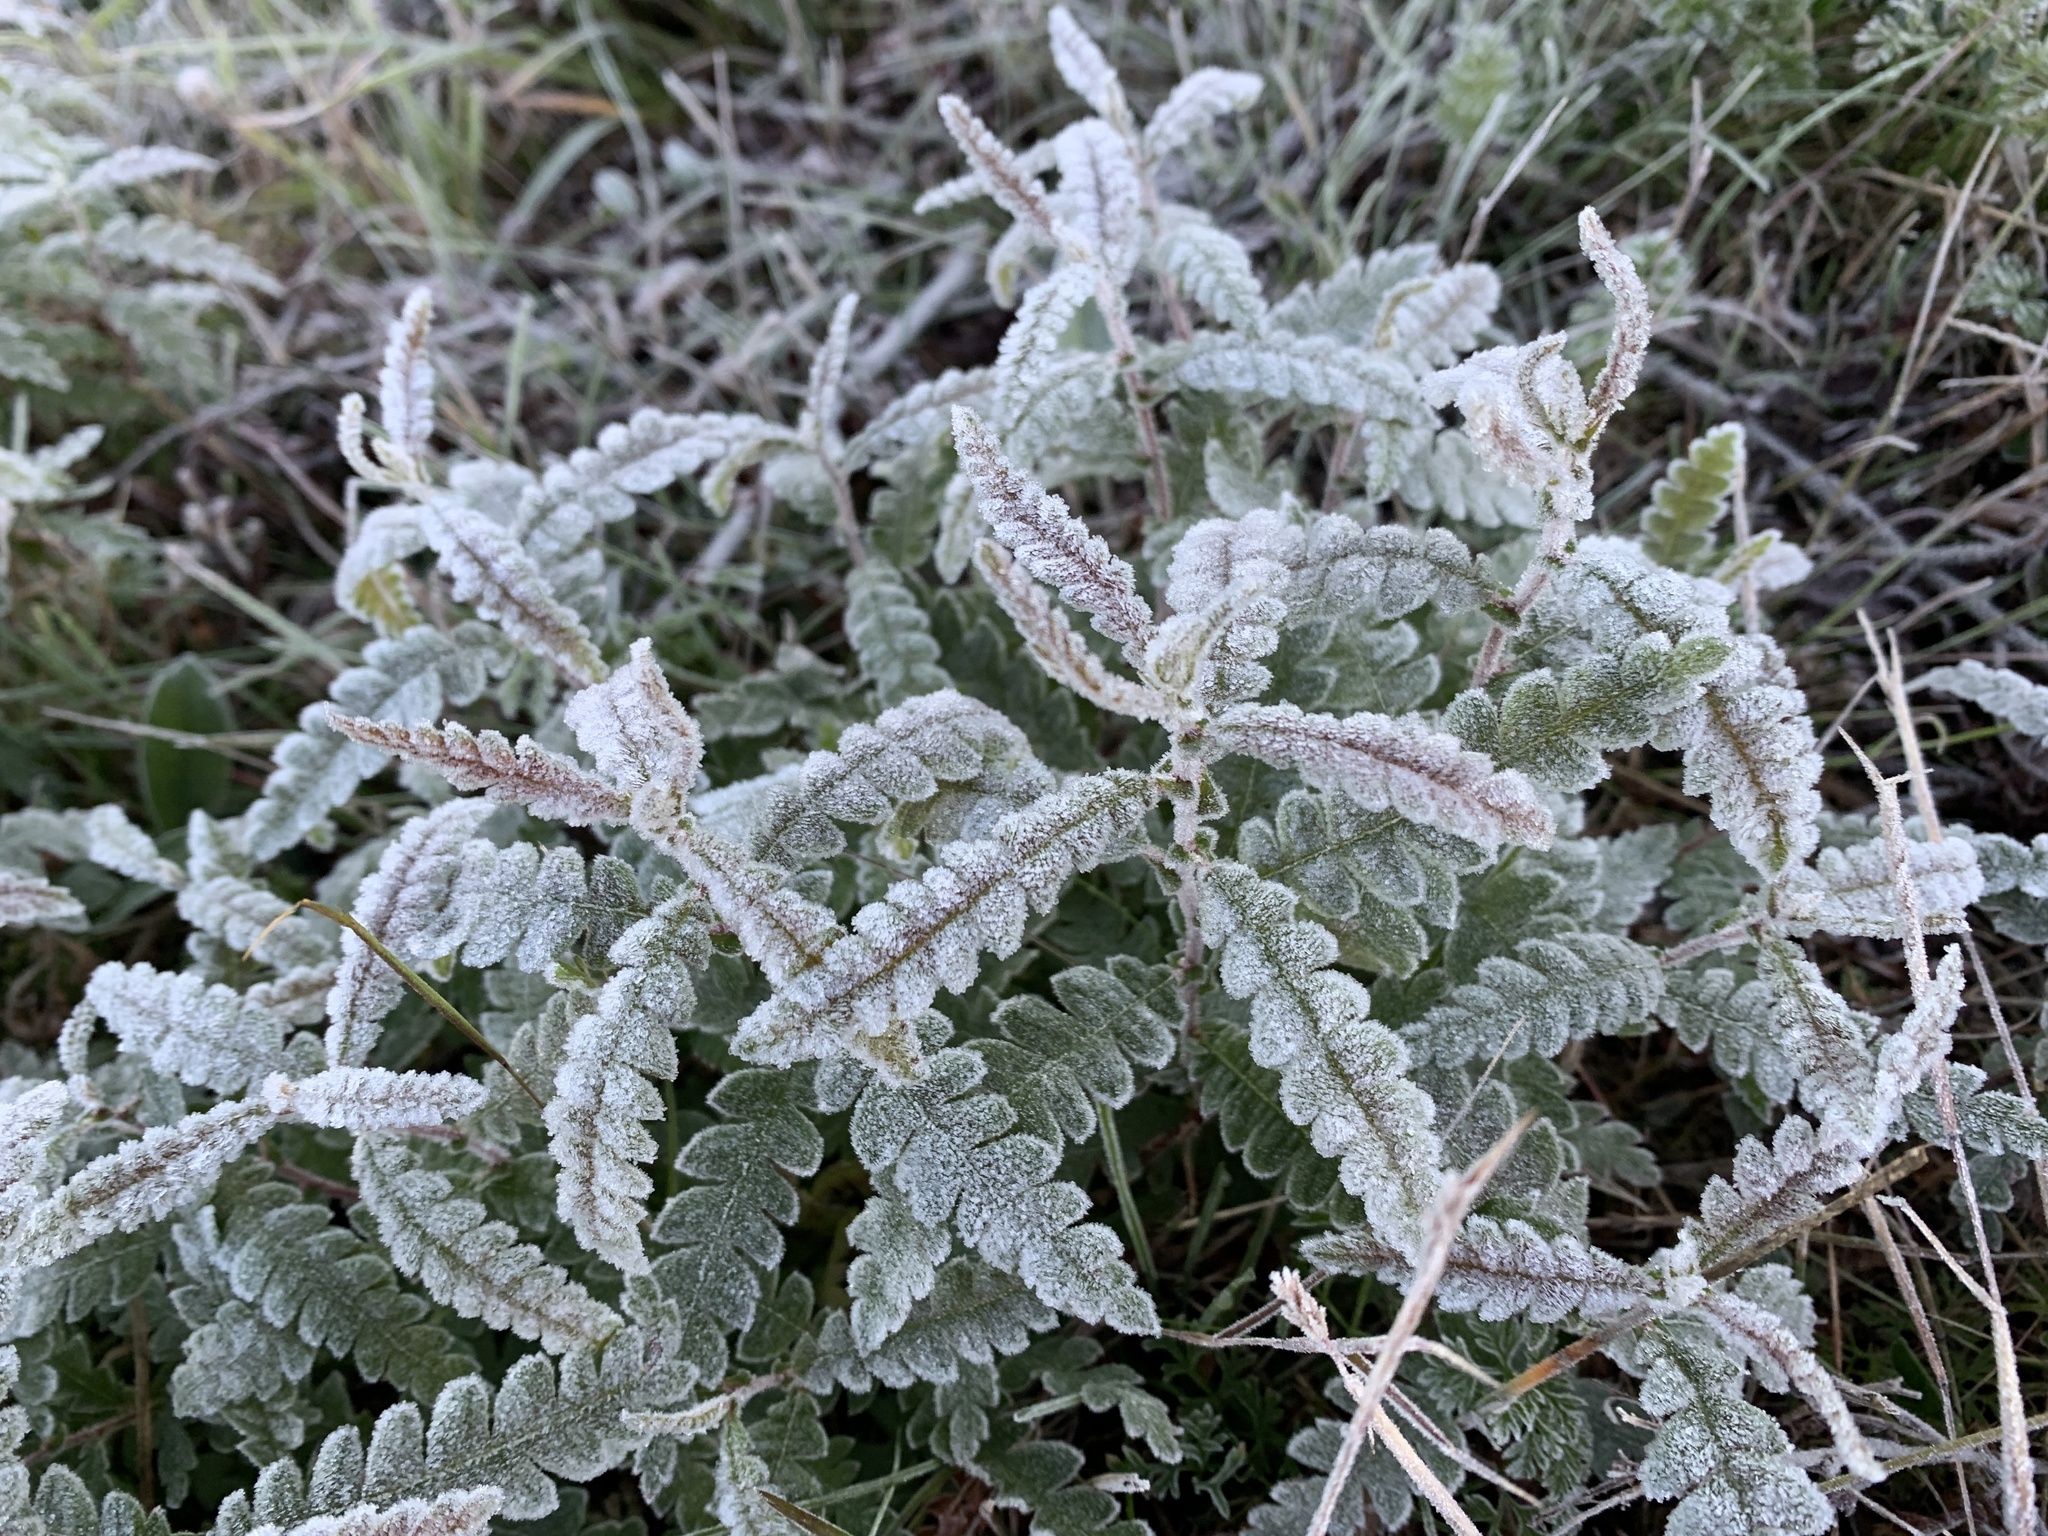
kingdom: Plantae
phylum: Tracheophyta
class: Magnoliopsida
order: Fagales
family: Myricaceae
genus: Comptonia
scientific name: Comptonia peregrina
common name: Sweet-fern
